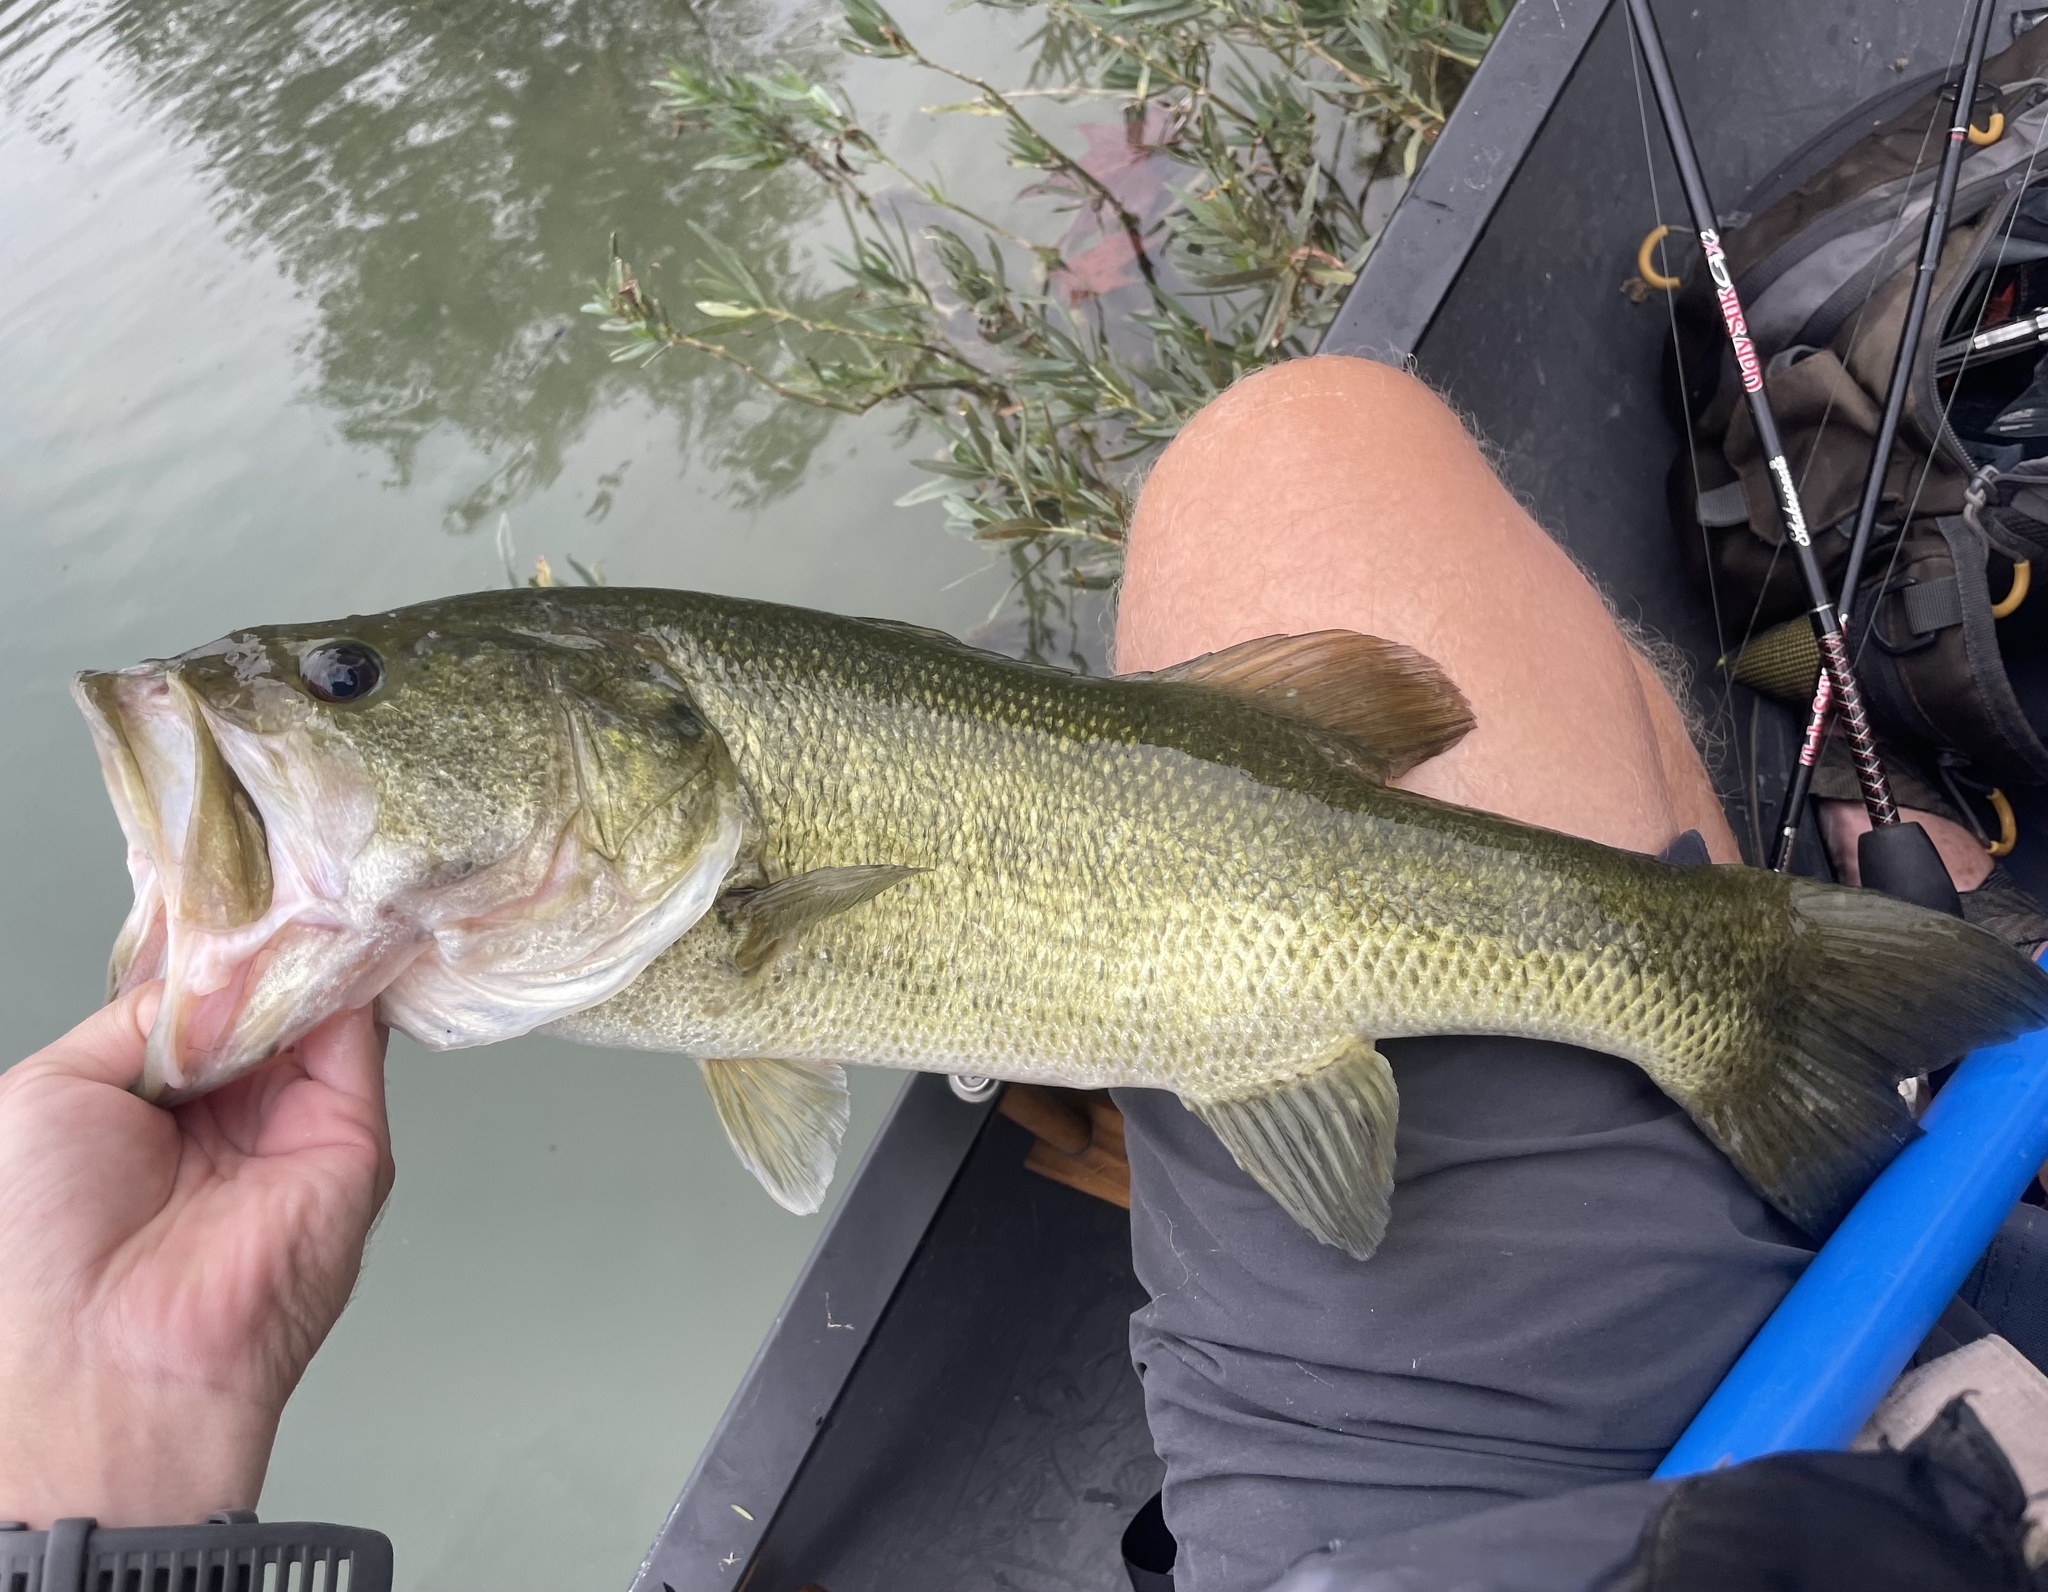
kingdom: Animalia
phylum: Chordata
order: Perciformes
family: Centrarchidae
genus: Micropterus
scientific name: Micropterus
